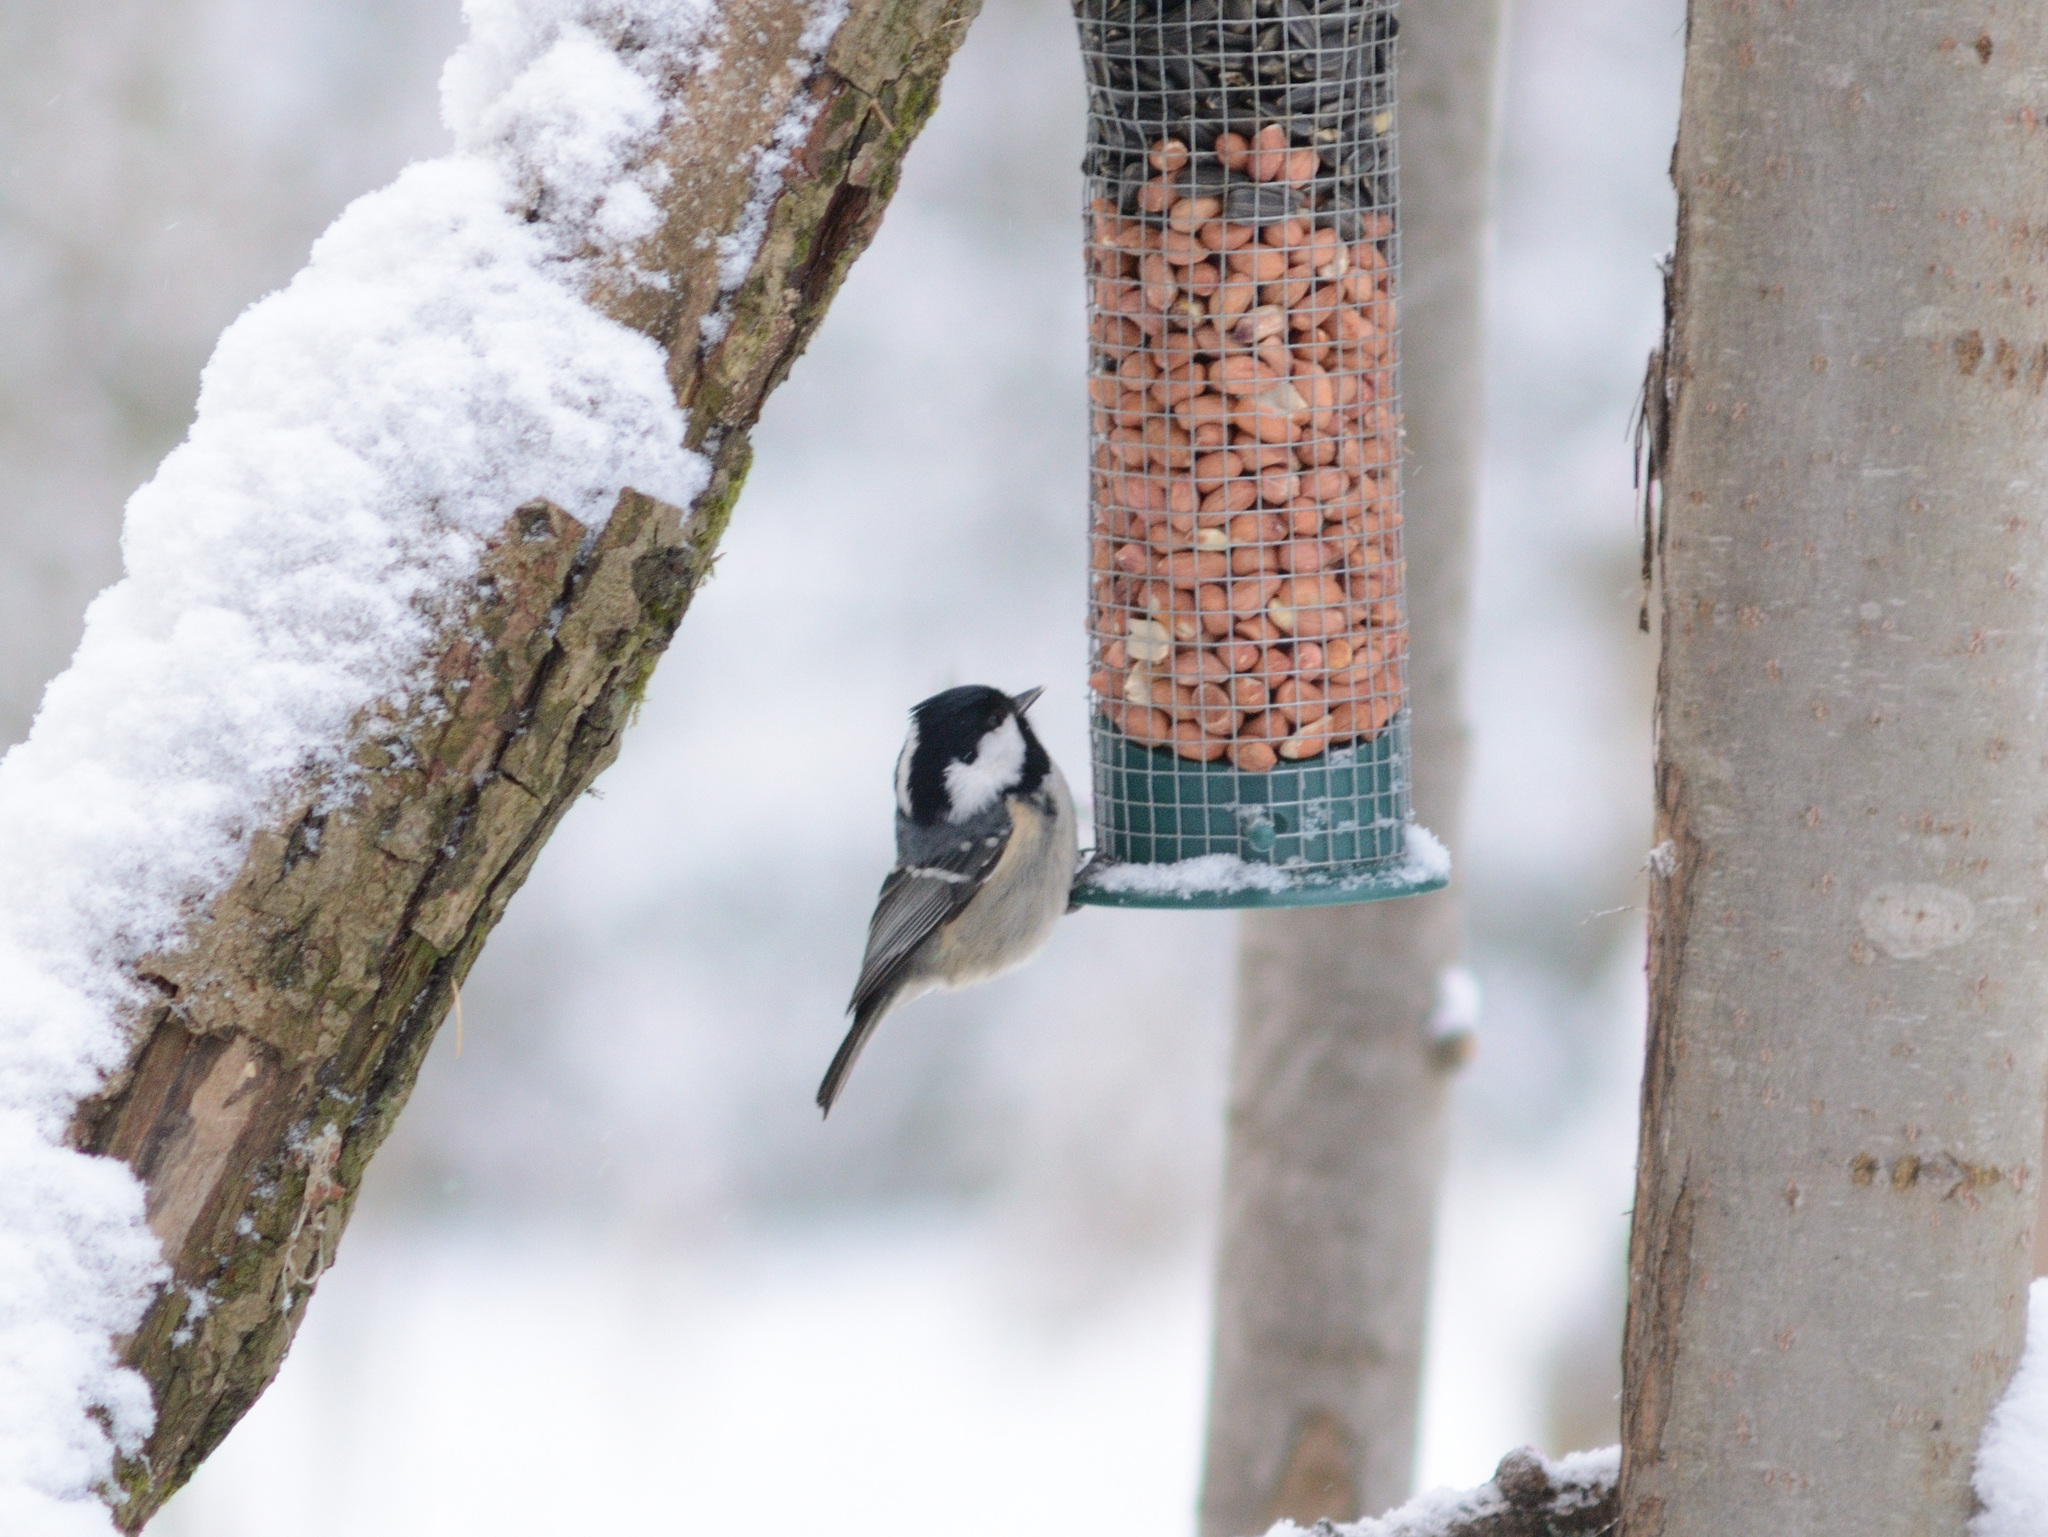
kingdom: Animalia
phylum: Chordata
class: Aves
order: Passeriformes
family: Paridae
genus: Periparus
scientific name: Periparus ater
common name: Coal tit
